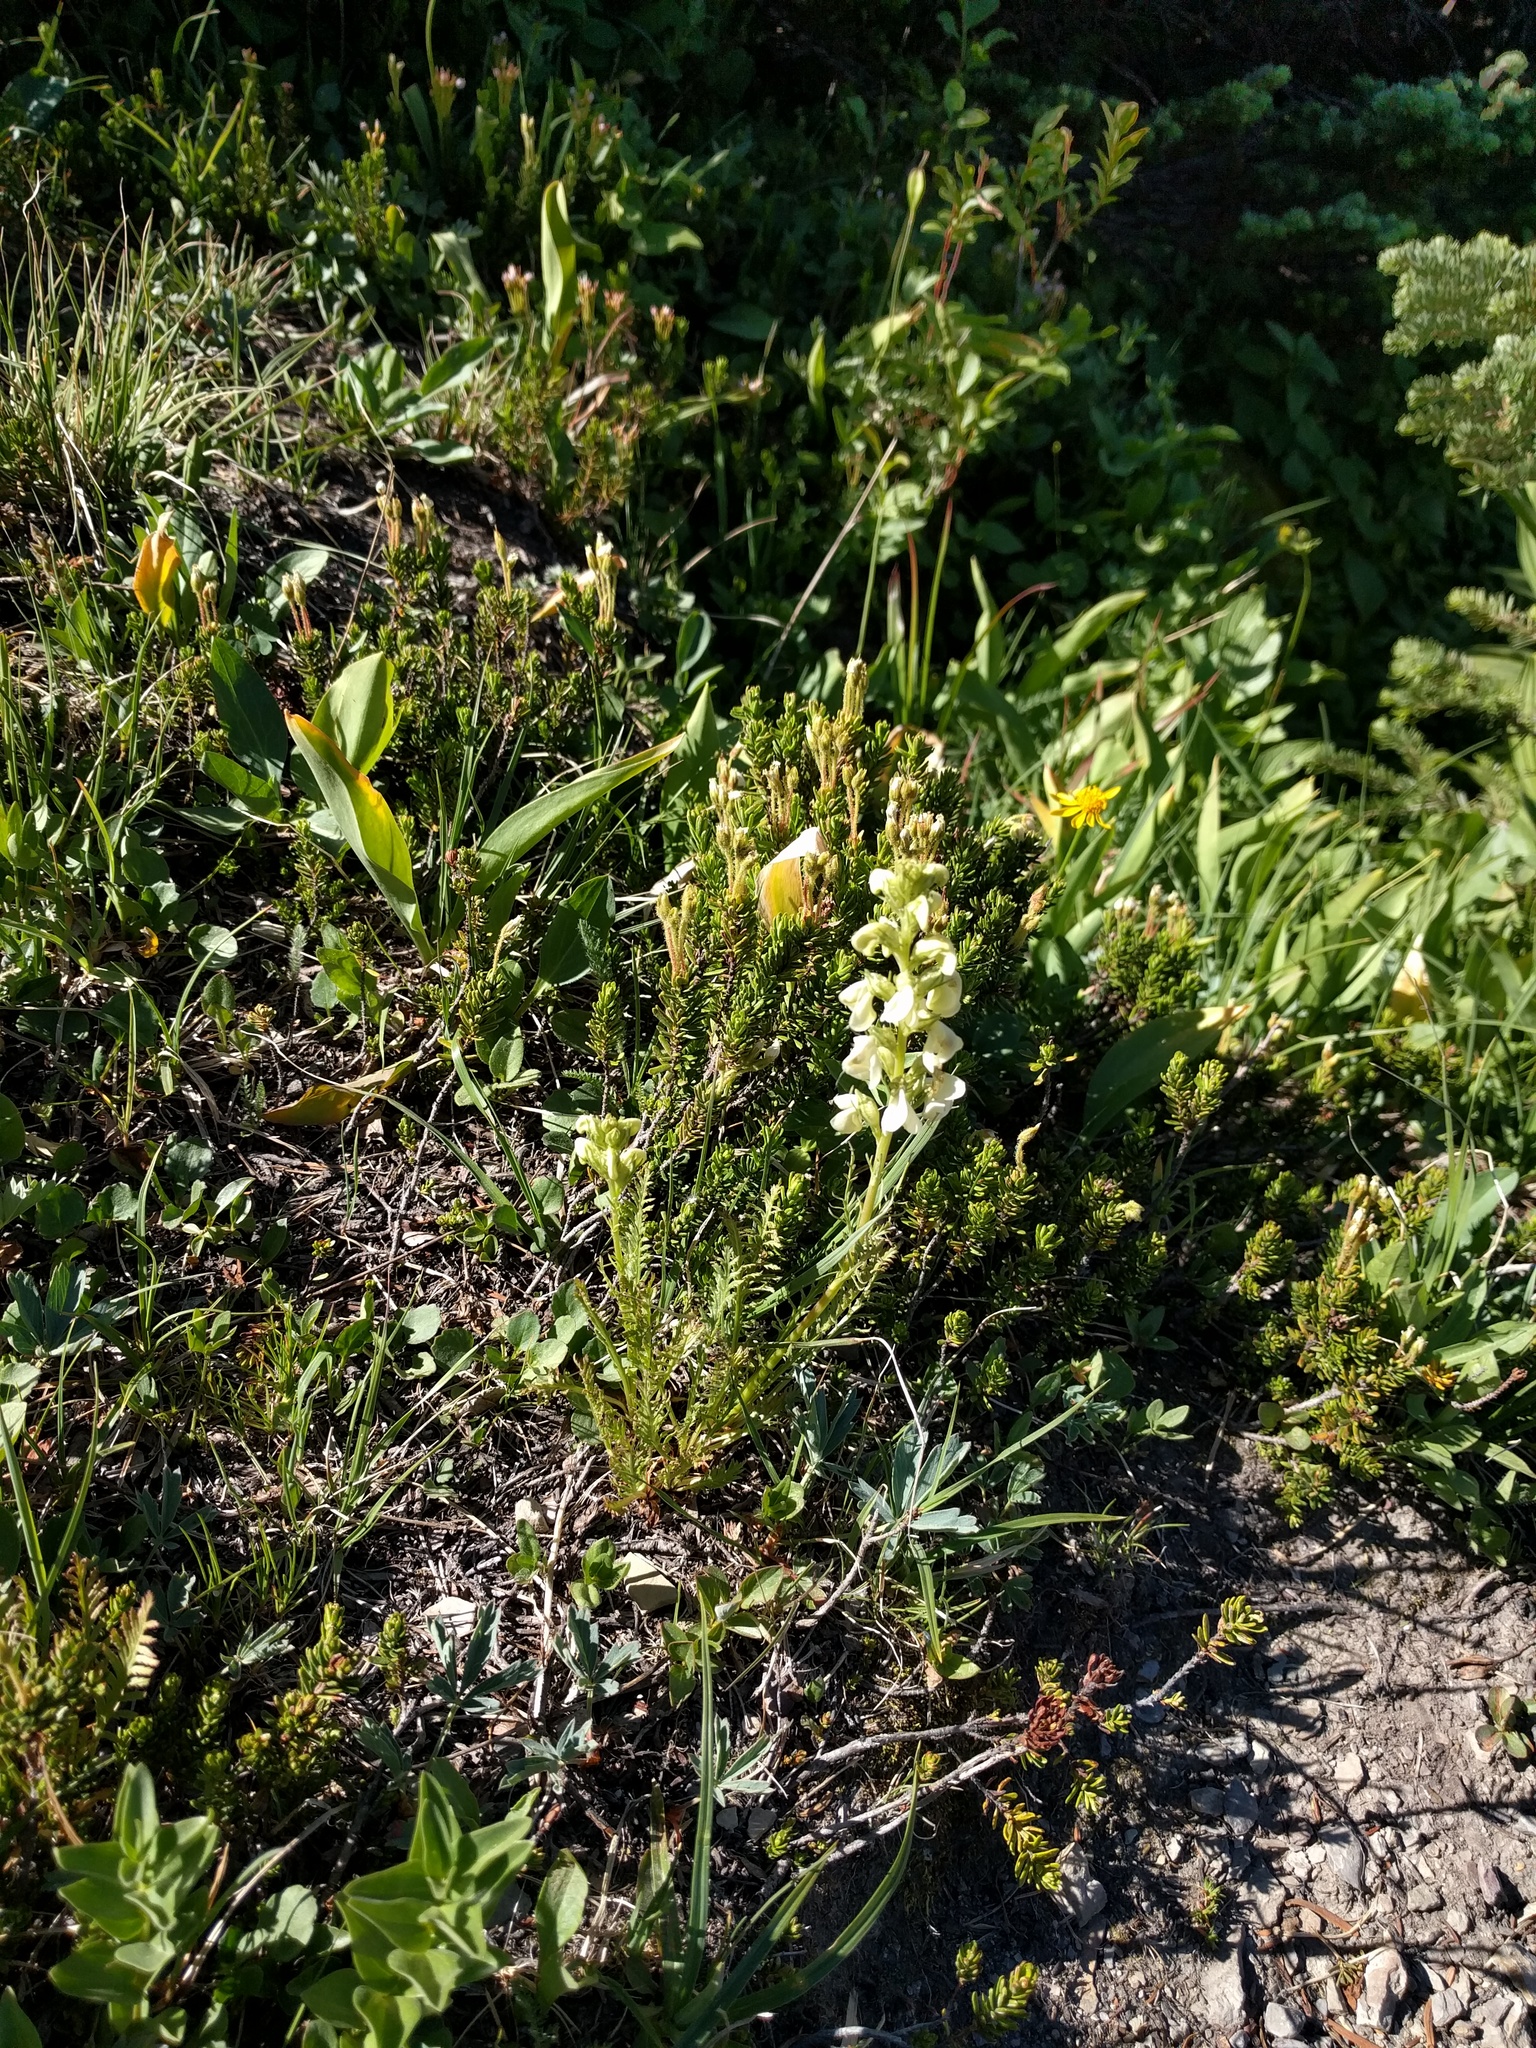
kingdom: Plantae
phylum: Tracheophyta
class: Magnoliopsida
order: Lamiales
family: Orobanchaceae
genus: Pedicularis
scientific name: Pedicularis contorta
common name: Coiled lousewort
